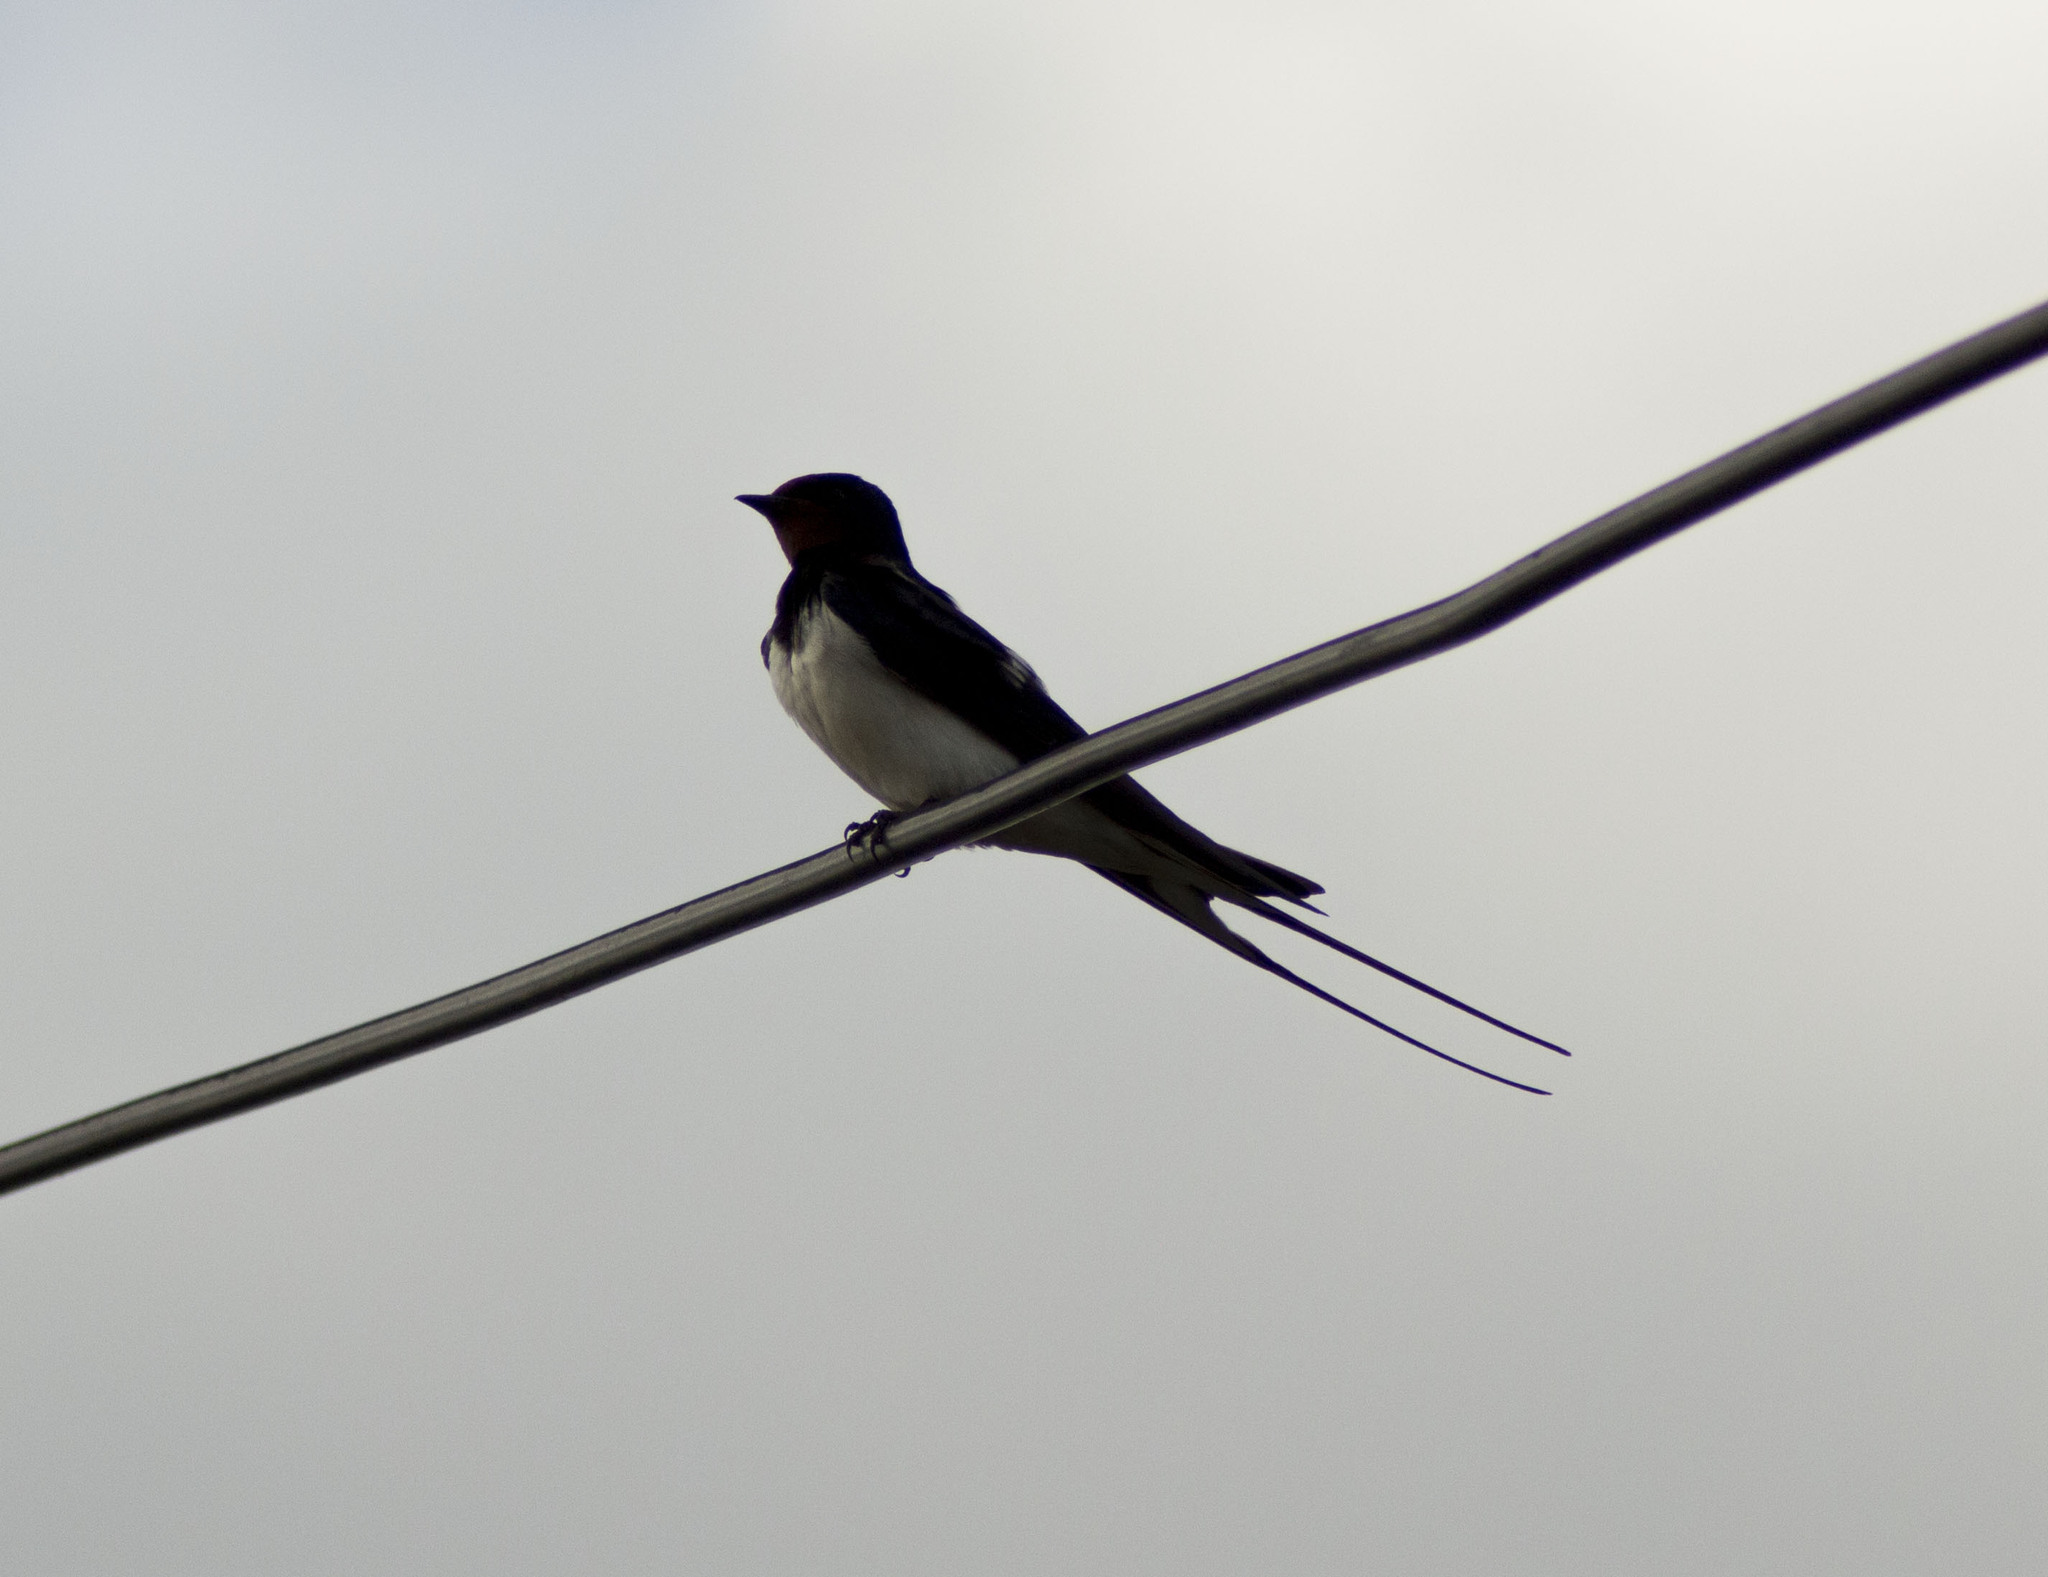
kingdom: Animalia
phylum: Chordata
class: Aves
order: Passeriformes
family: Hirundinidae
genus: Hirundo
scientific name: Hirundo rustica
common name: Barn swallow
